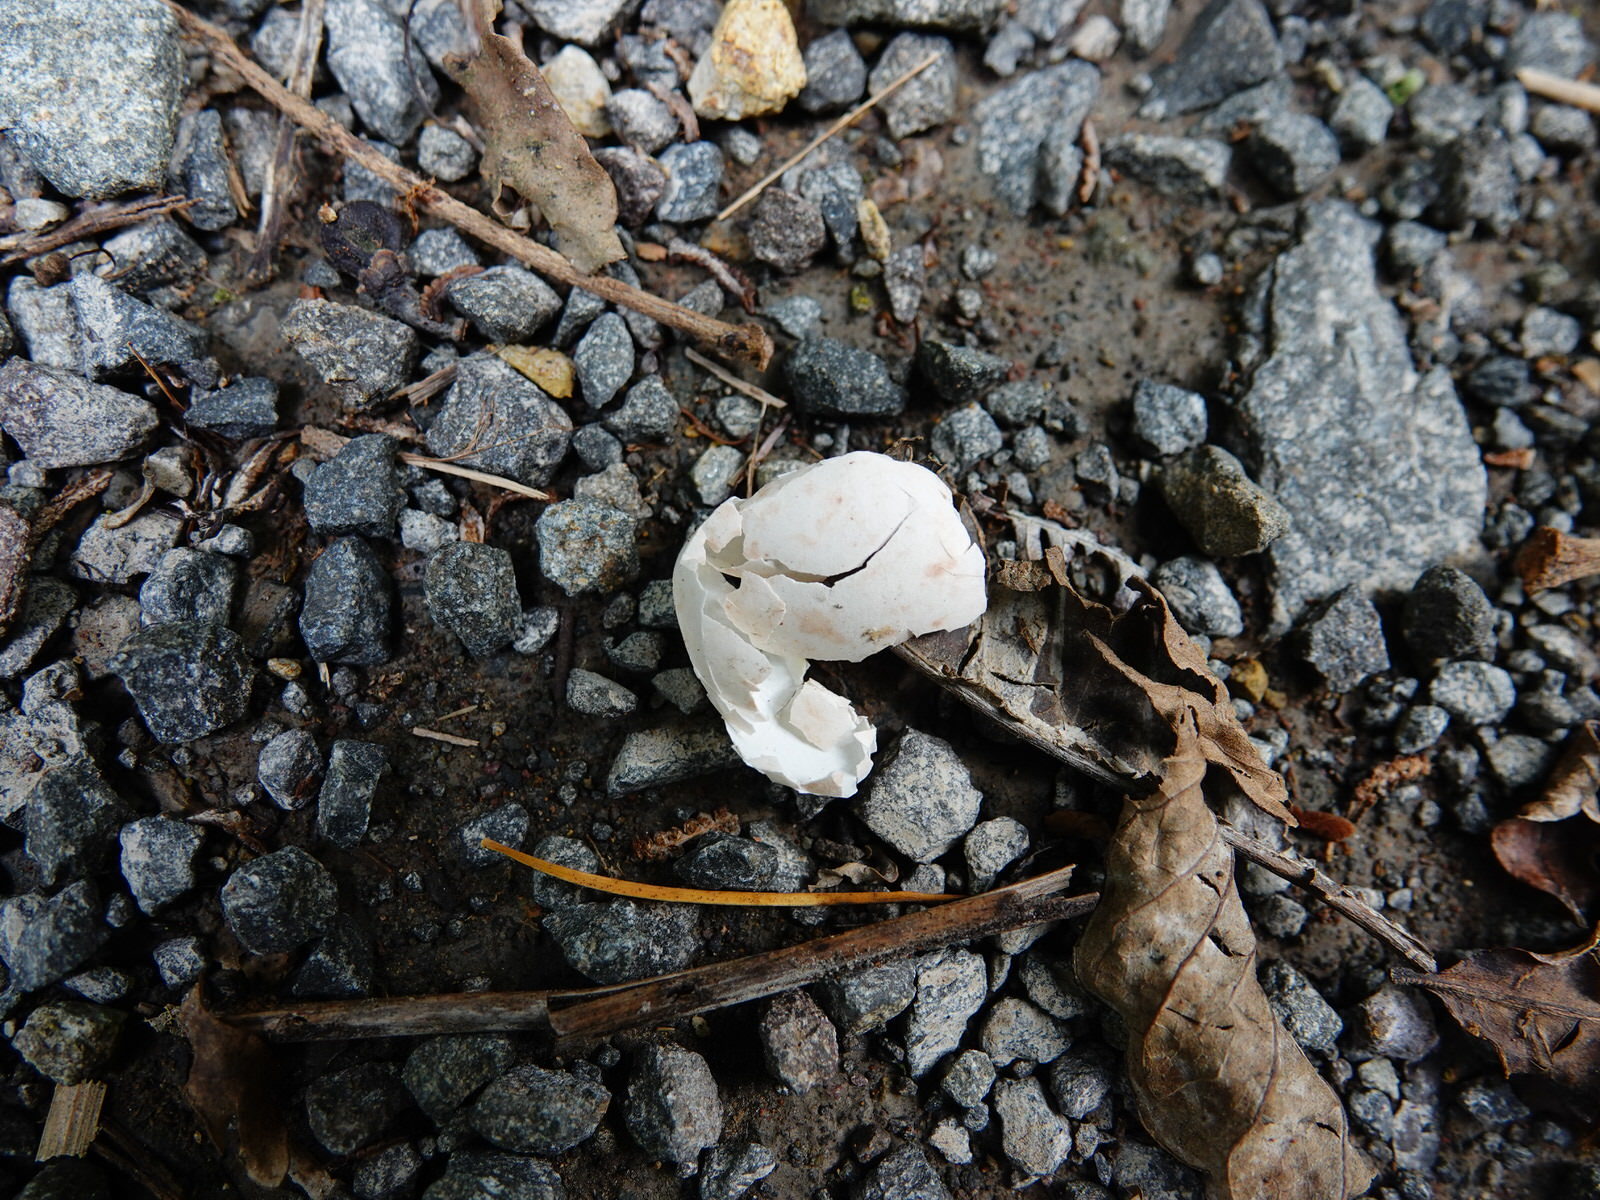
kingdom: Animalia
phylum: Chordata
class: Aves
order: Passeriformes
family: Meliphagidae
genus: Prosthemadera
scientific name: Prosthemadera novaeseelandiae
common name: Tui
